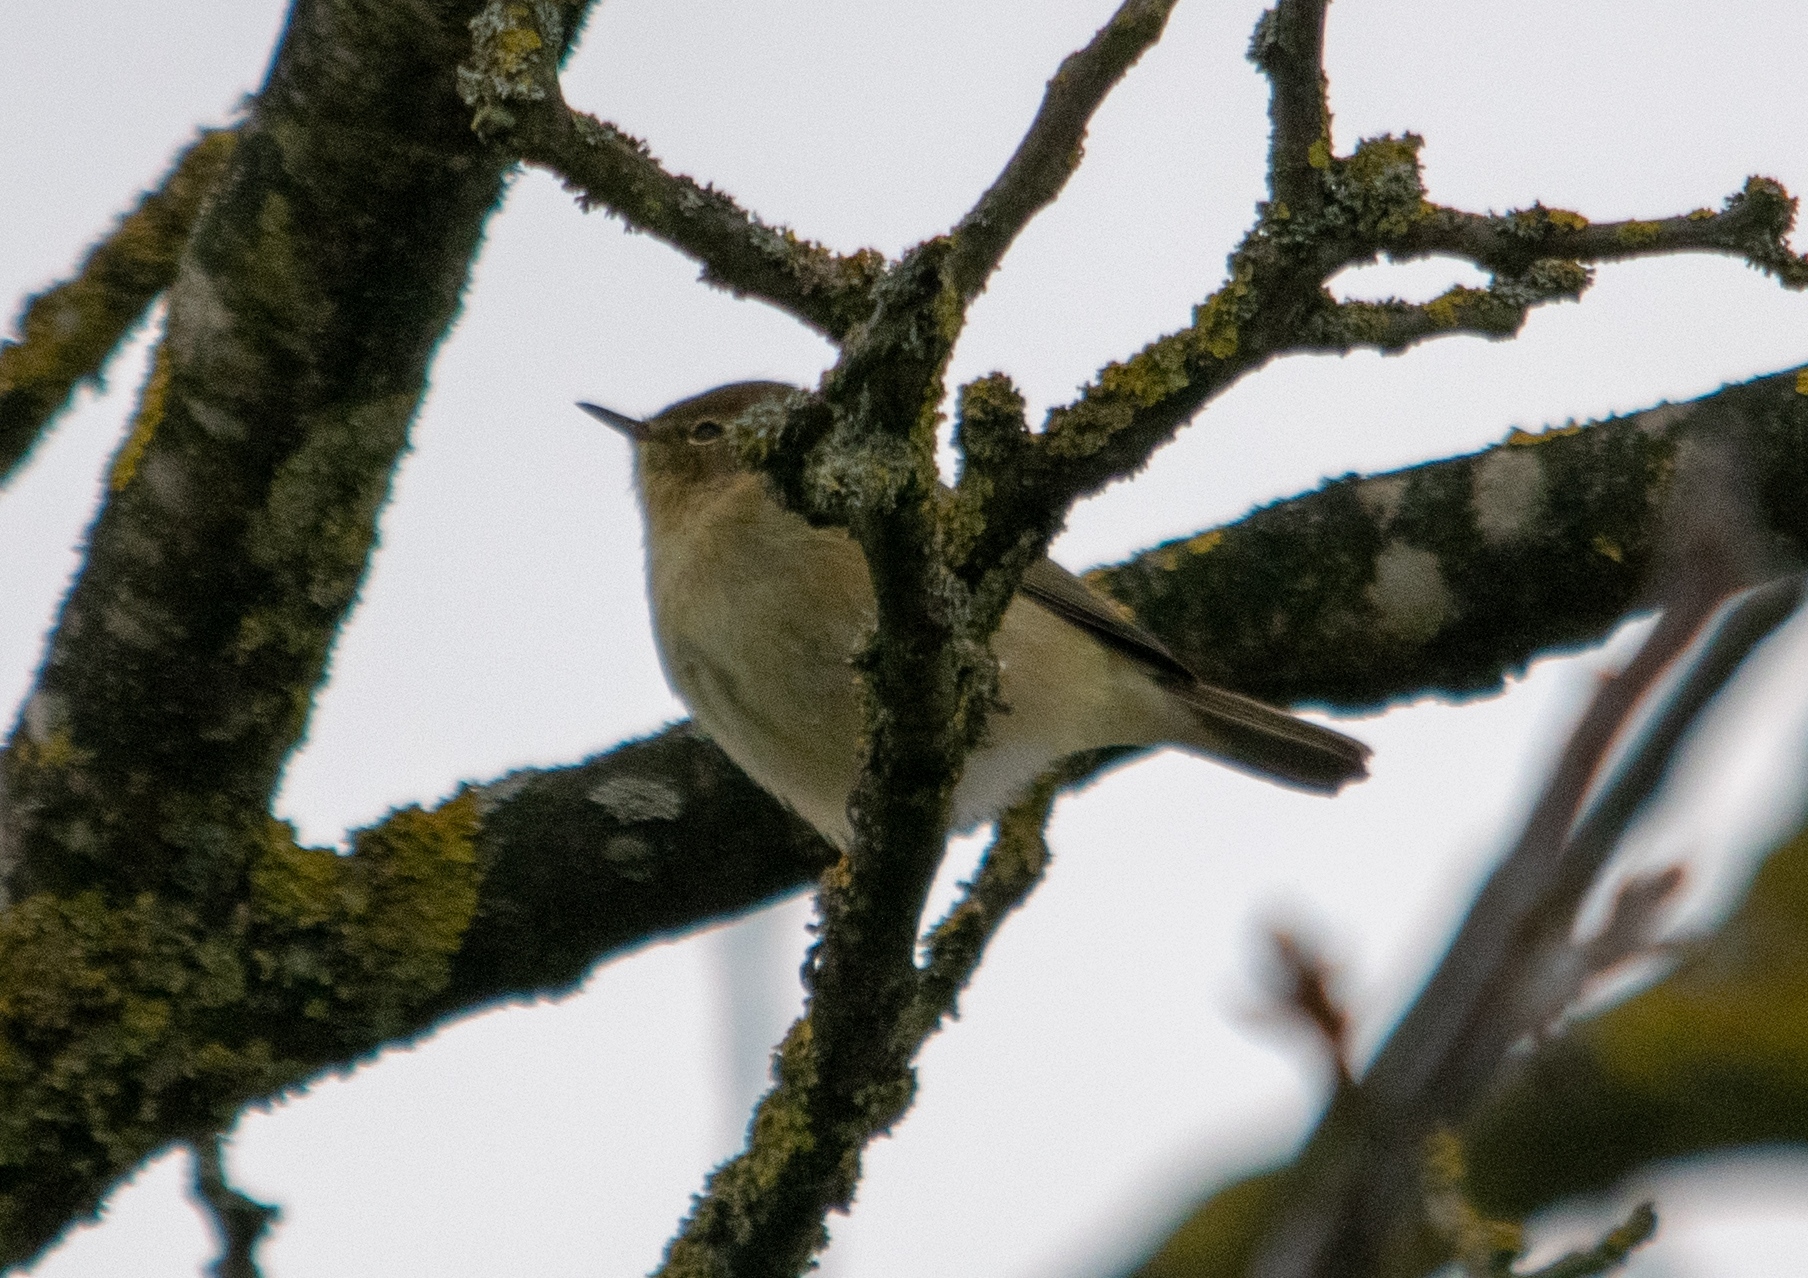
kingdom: Animalia
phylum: Chordata
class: Aves
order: Passeriformes
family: Phylloscopidae
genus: Phylloscopus
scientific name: Phylloscopus collybita
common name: Common chiffchaff
